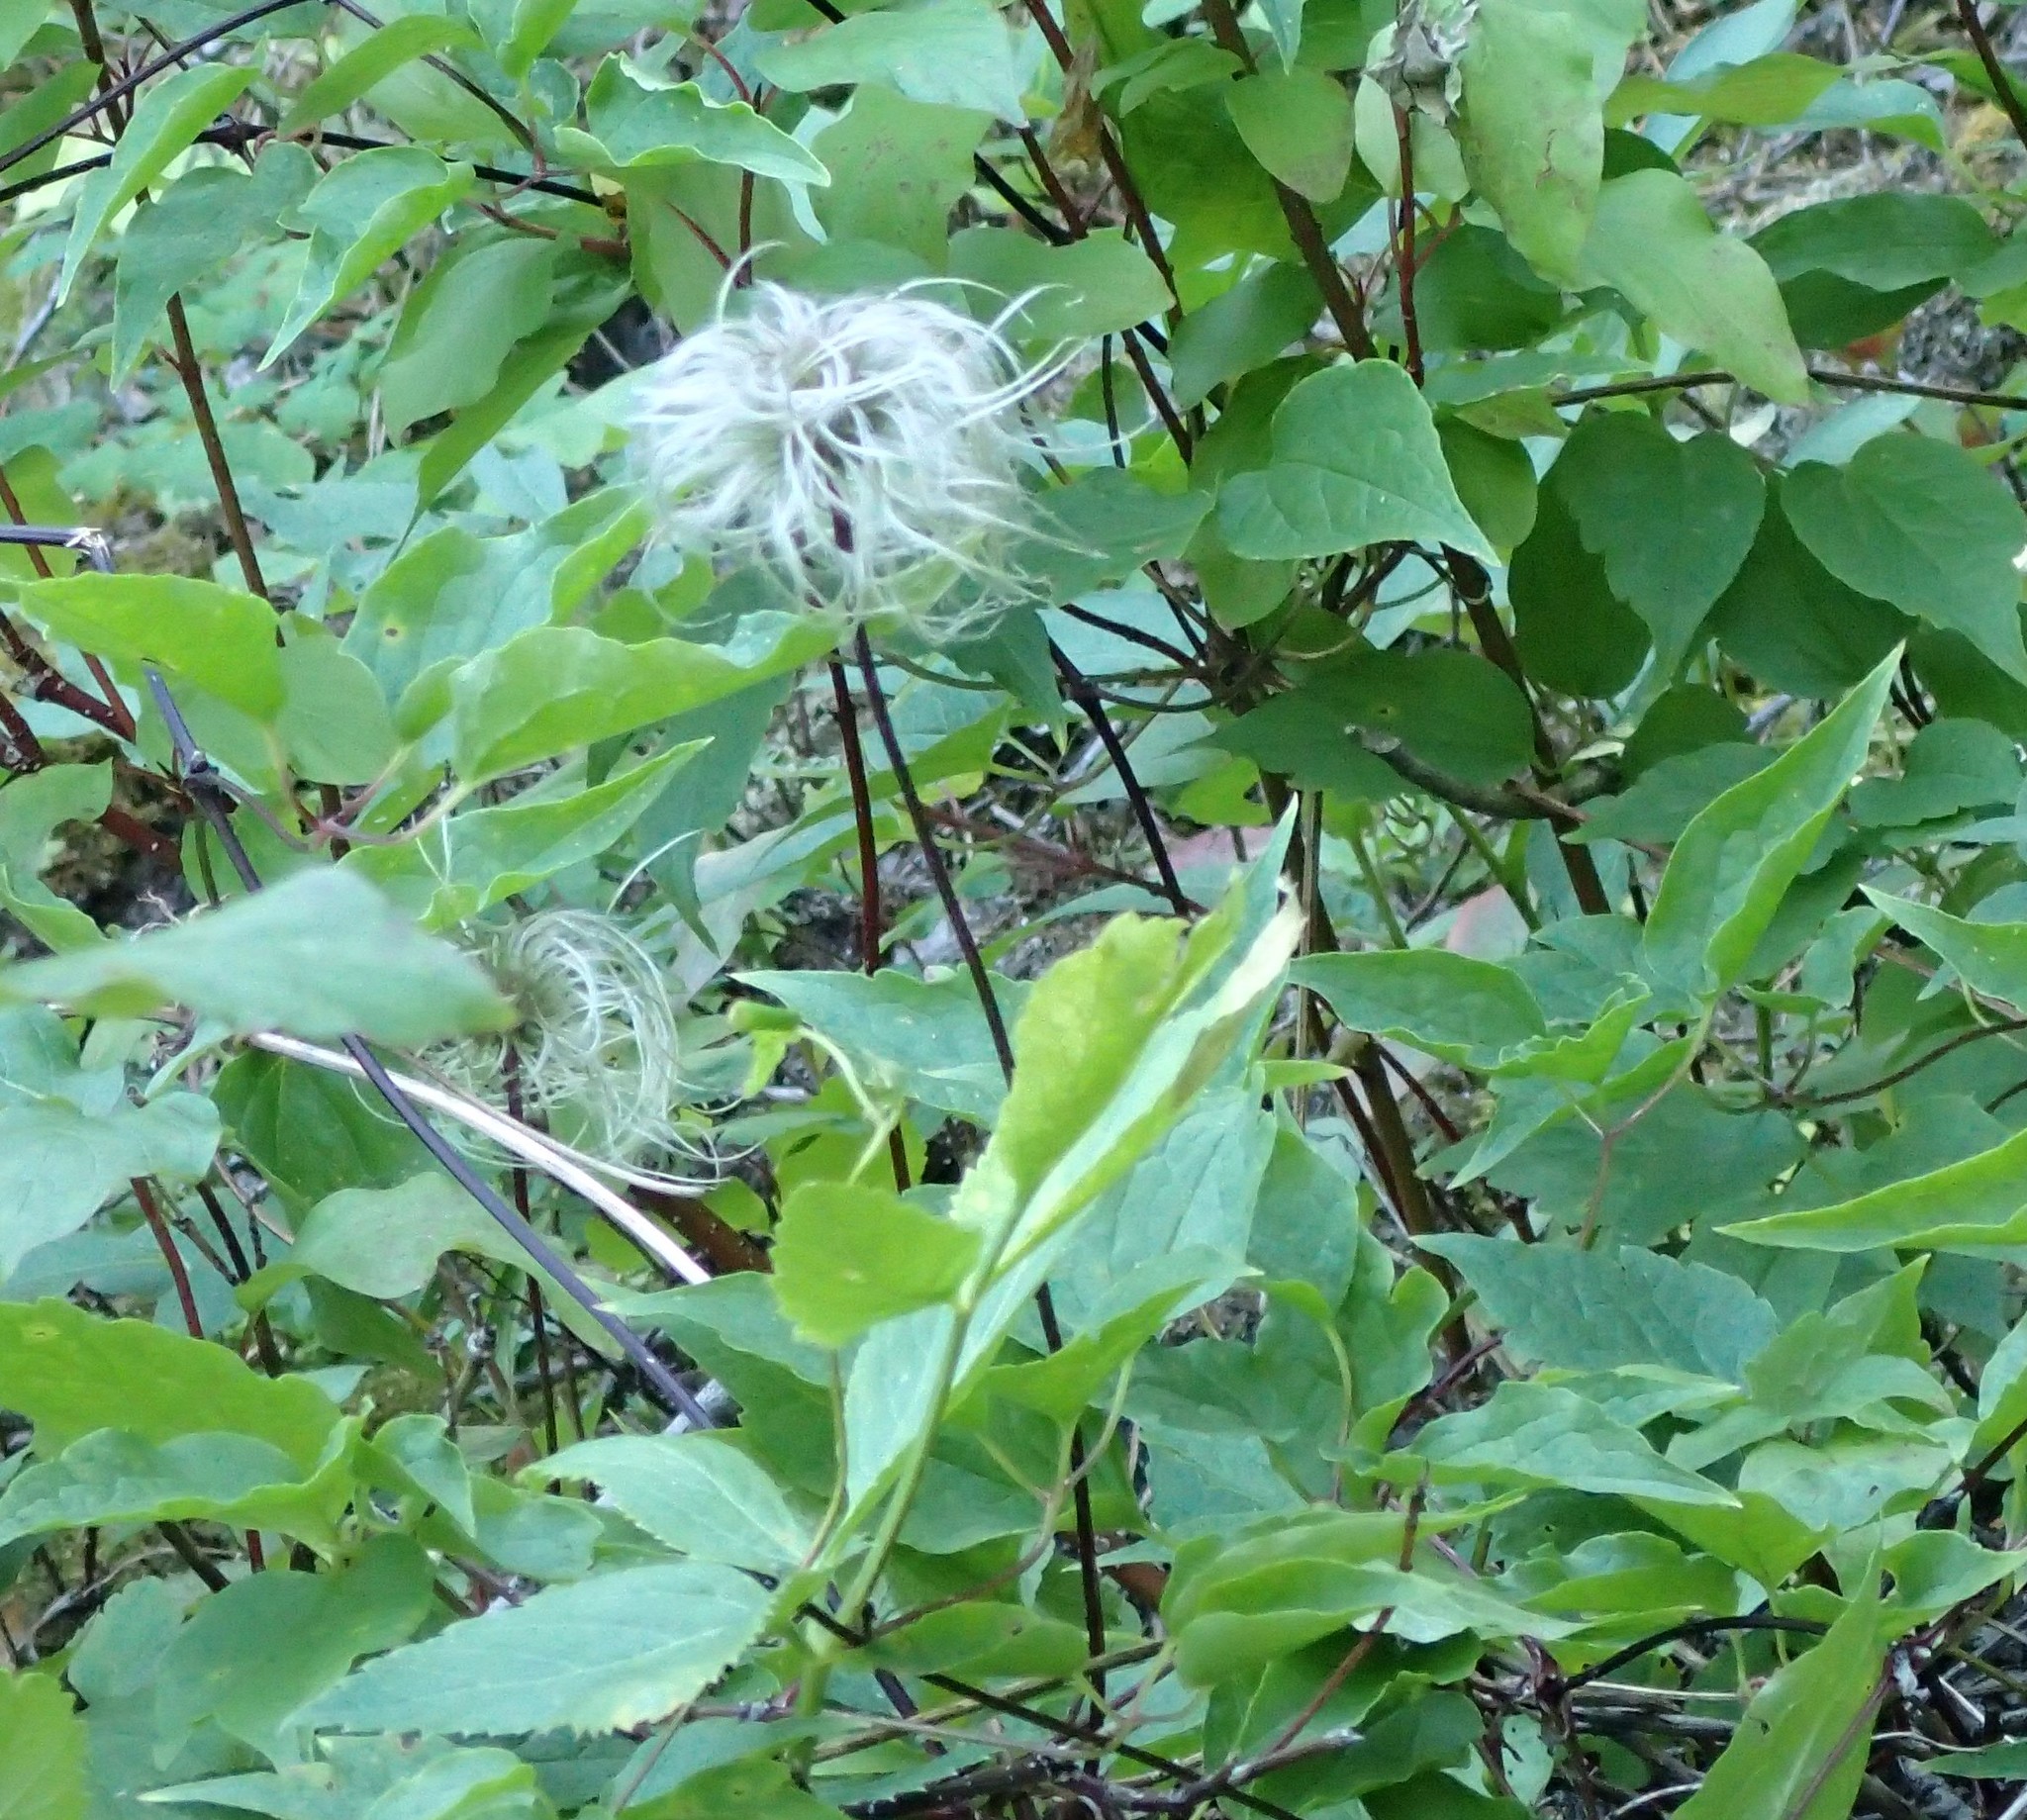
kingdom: Plantae
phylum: Tracheophyta
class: Magnoliopsida
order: Ranunculales
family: Ranunculaceae
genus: Clematis
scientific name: Clematis occidentalis
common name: Purple clematis
